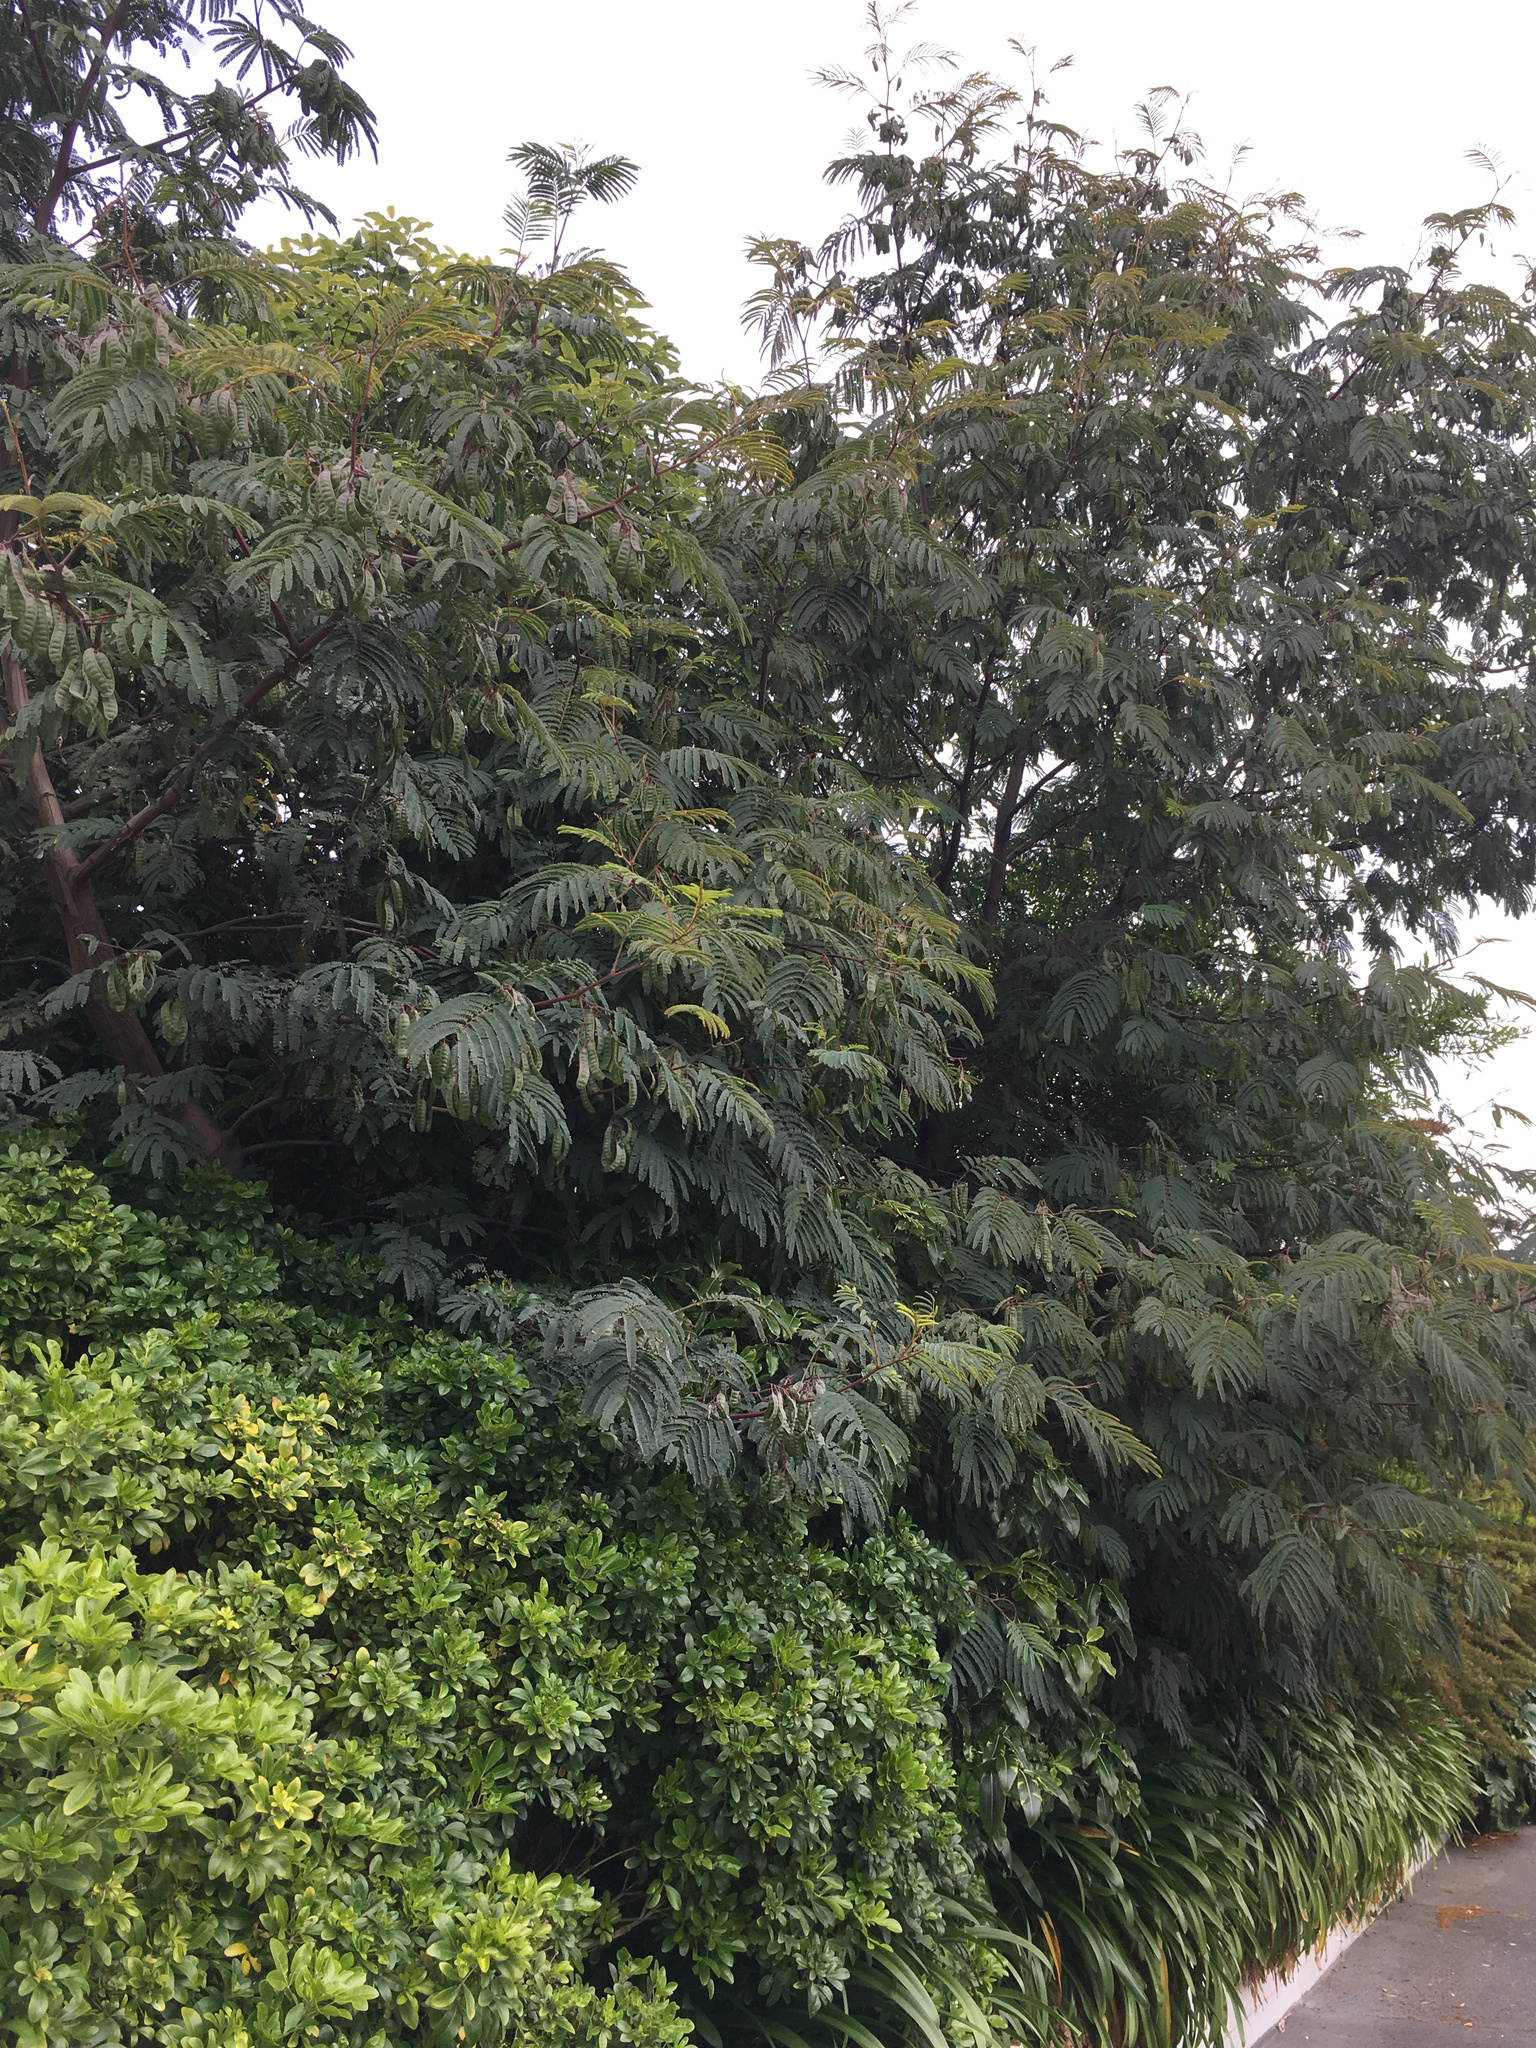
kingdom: Plantae
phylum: Tracheophyta
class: Magnoliopsida
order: Fabales
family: Fabaceae
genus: Paraserianthes
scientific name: Paraserianthes lophantha
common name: Plume albizia
